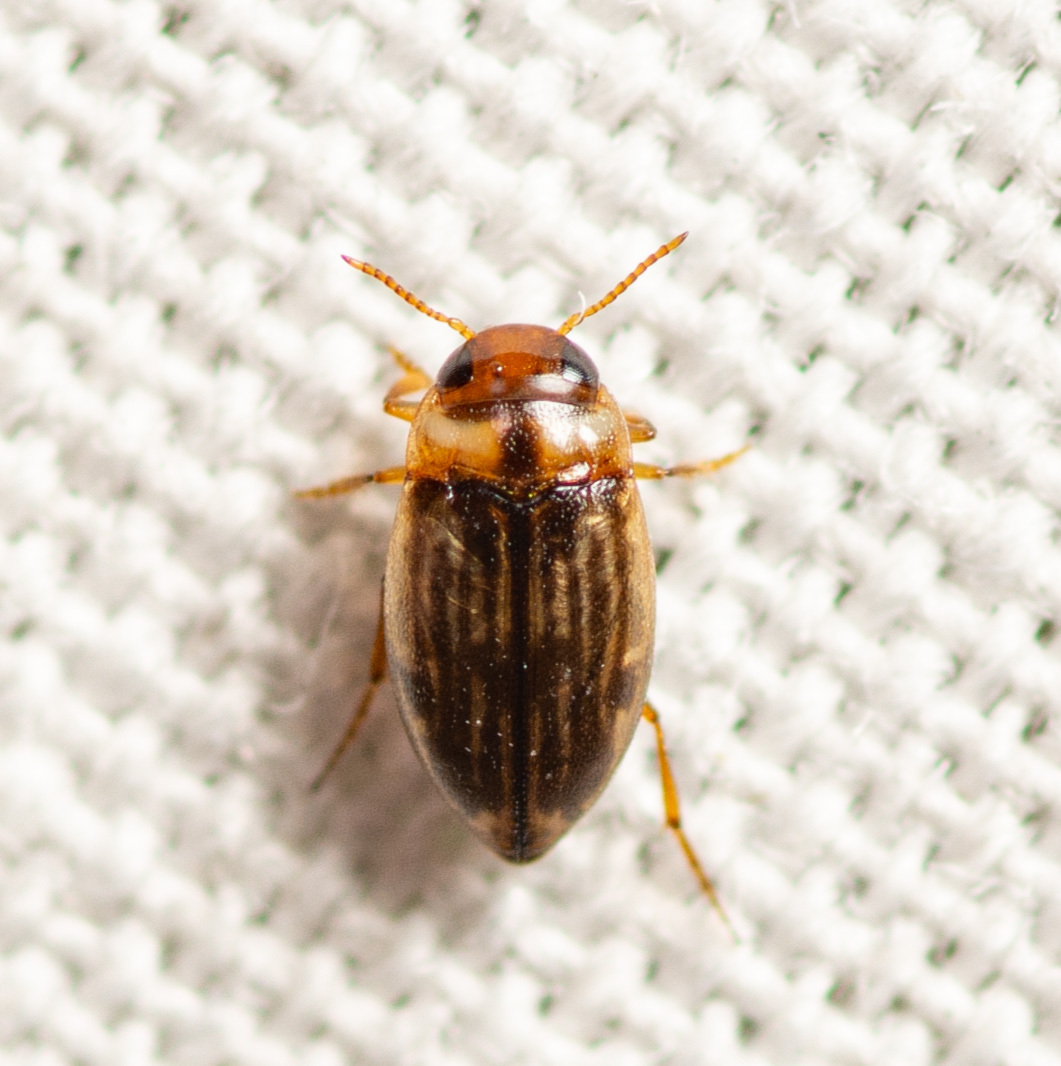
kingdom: Animalia
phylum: Arthropoda
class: Insecta
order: Coleoptera
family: Dytiscidae
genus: Liodessus
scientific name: Liodessus obscurellus
